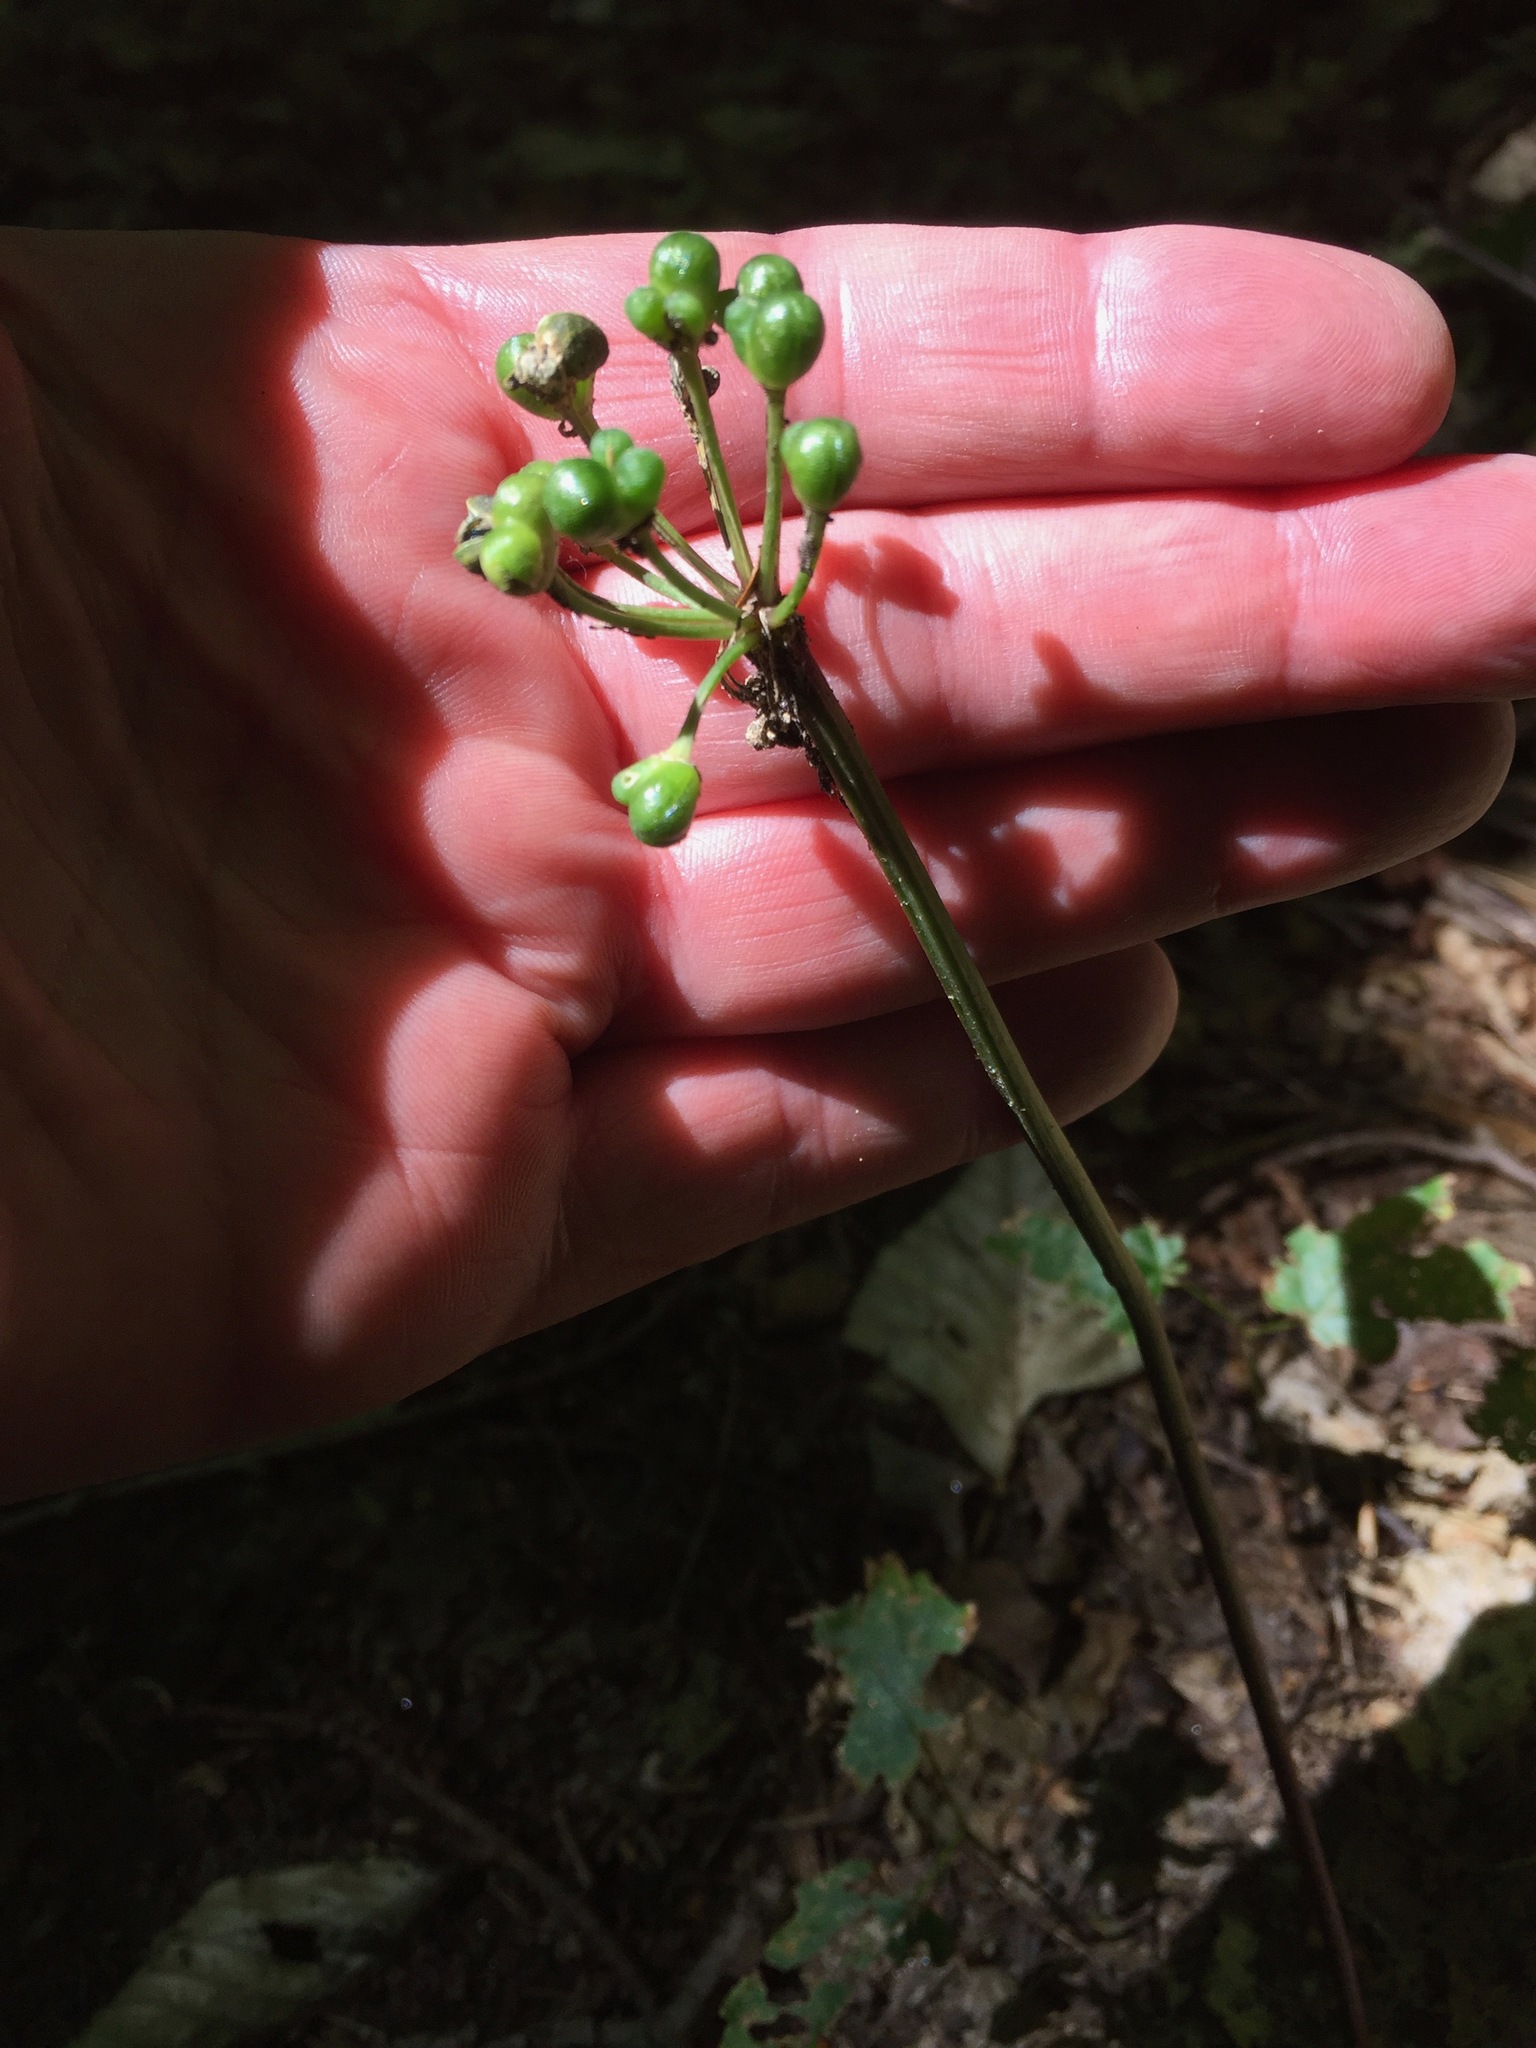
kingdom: Plantae
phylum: Tracheophyta
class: Liliopsida
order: Asparagales
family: Amaryllidaceae
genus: Allium
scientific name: Allium tricoccum
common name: Ramp
